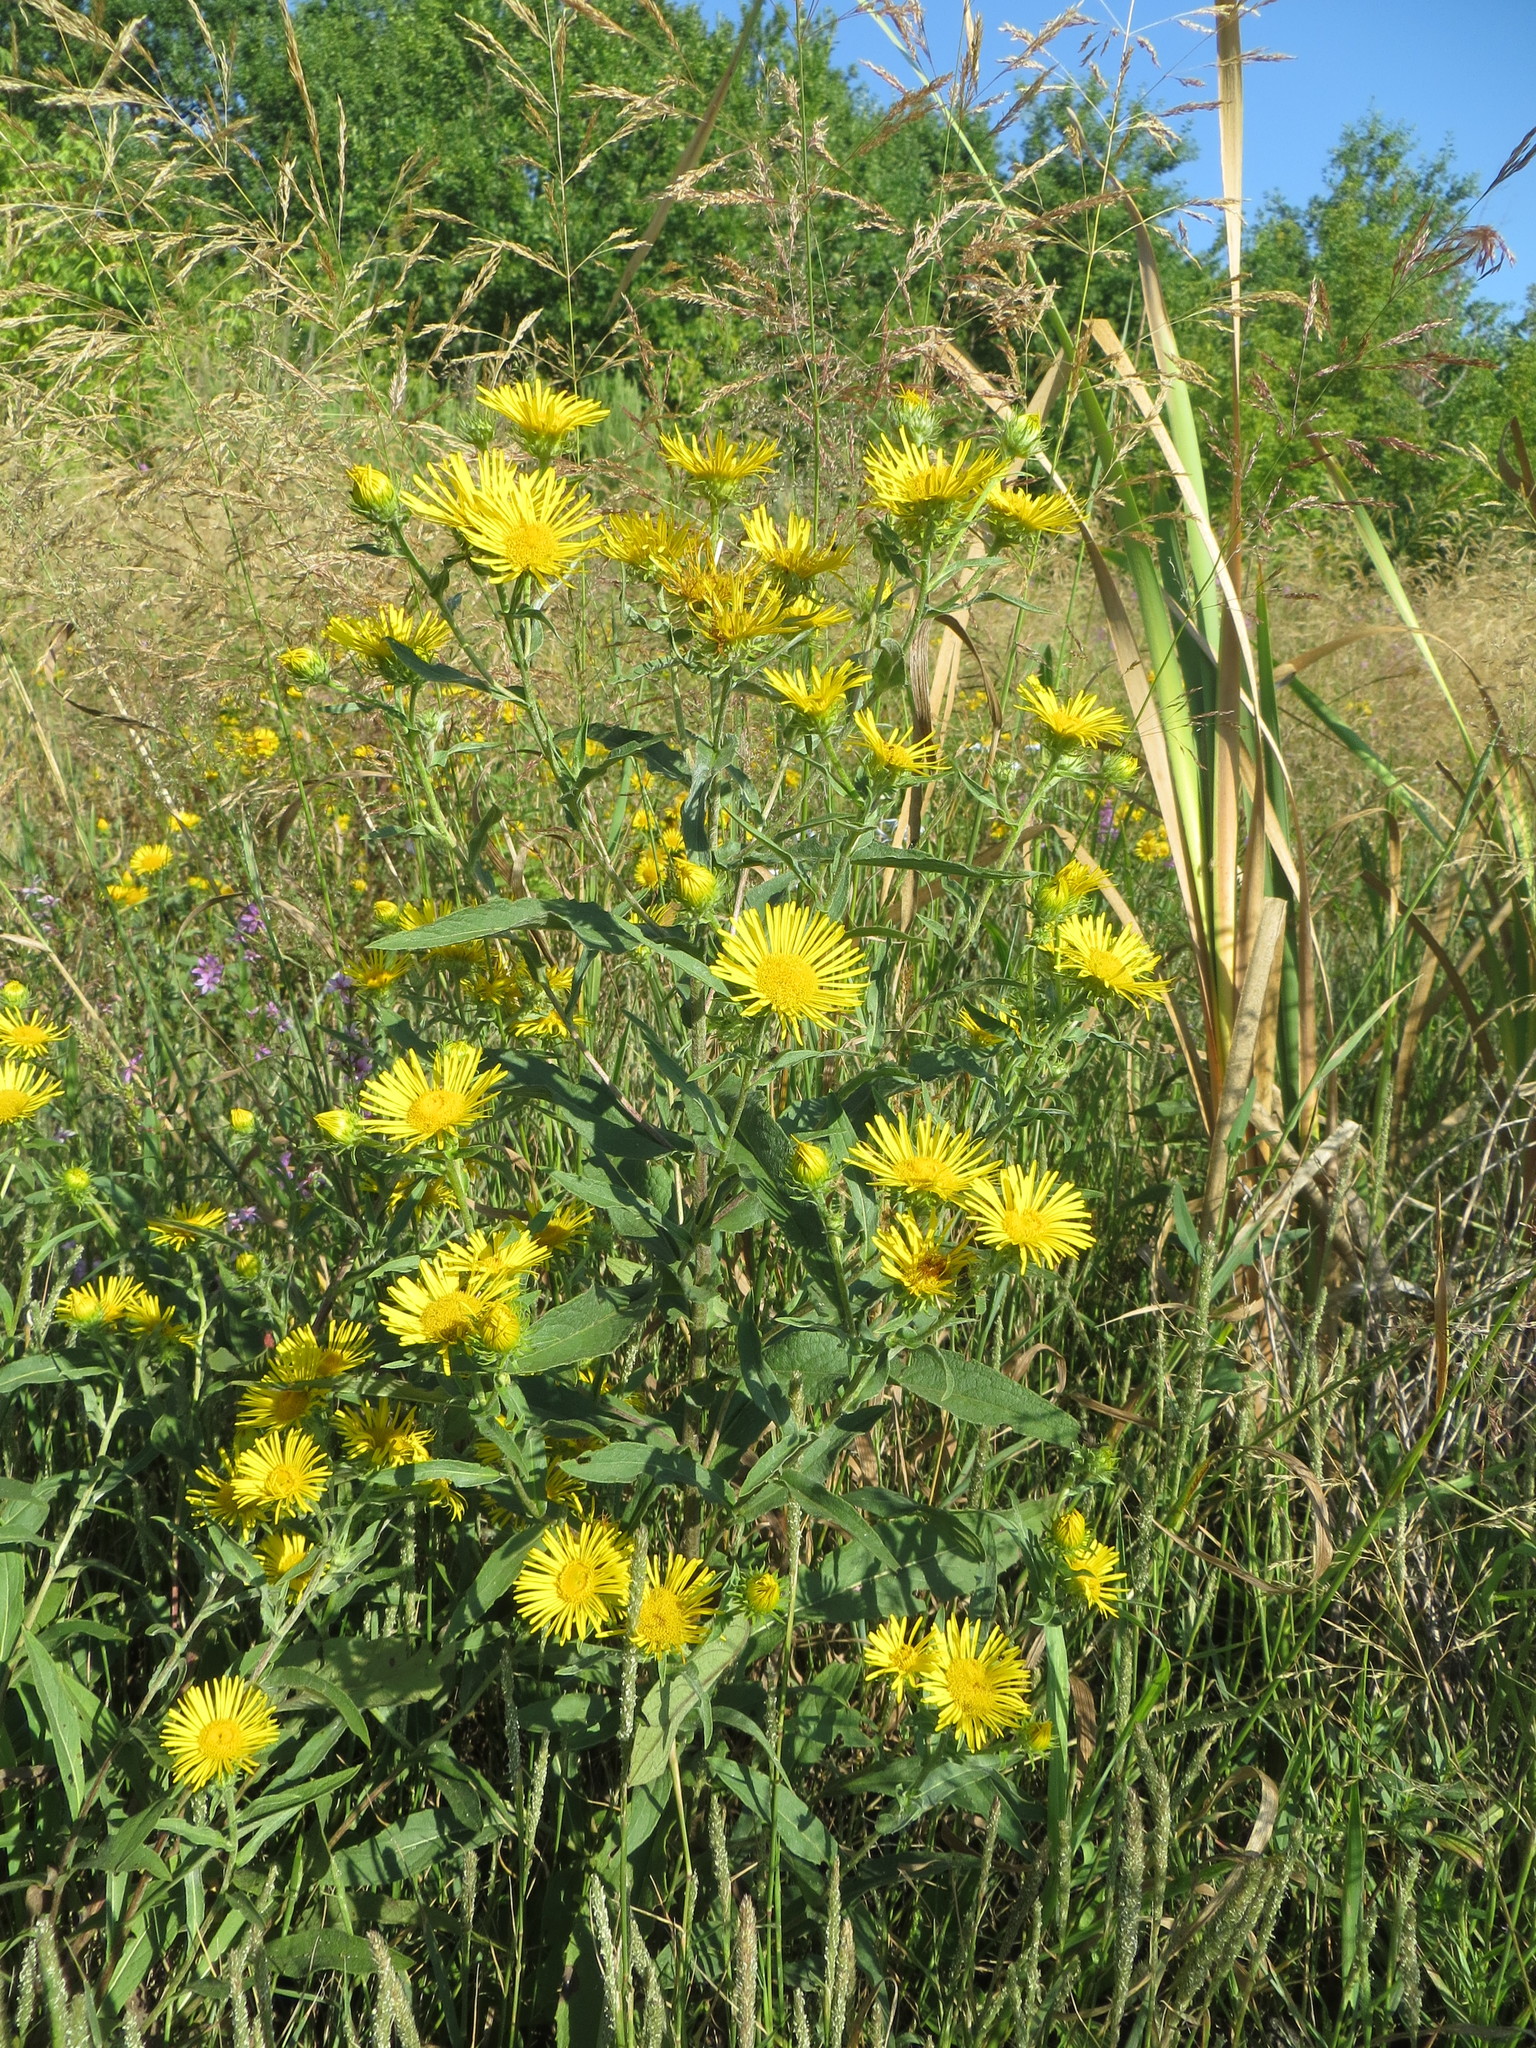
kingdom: Plantae
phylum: Tracheophyta
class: Magnoliopsida
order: Asterales
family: Asteraceae
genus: Pentanema
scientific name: Pentanema britannicum
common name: British elecampane
